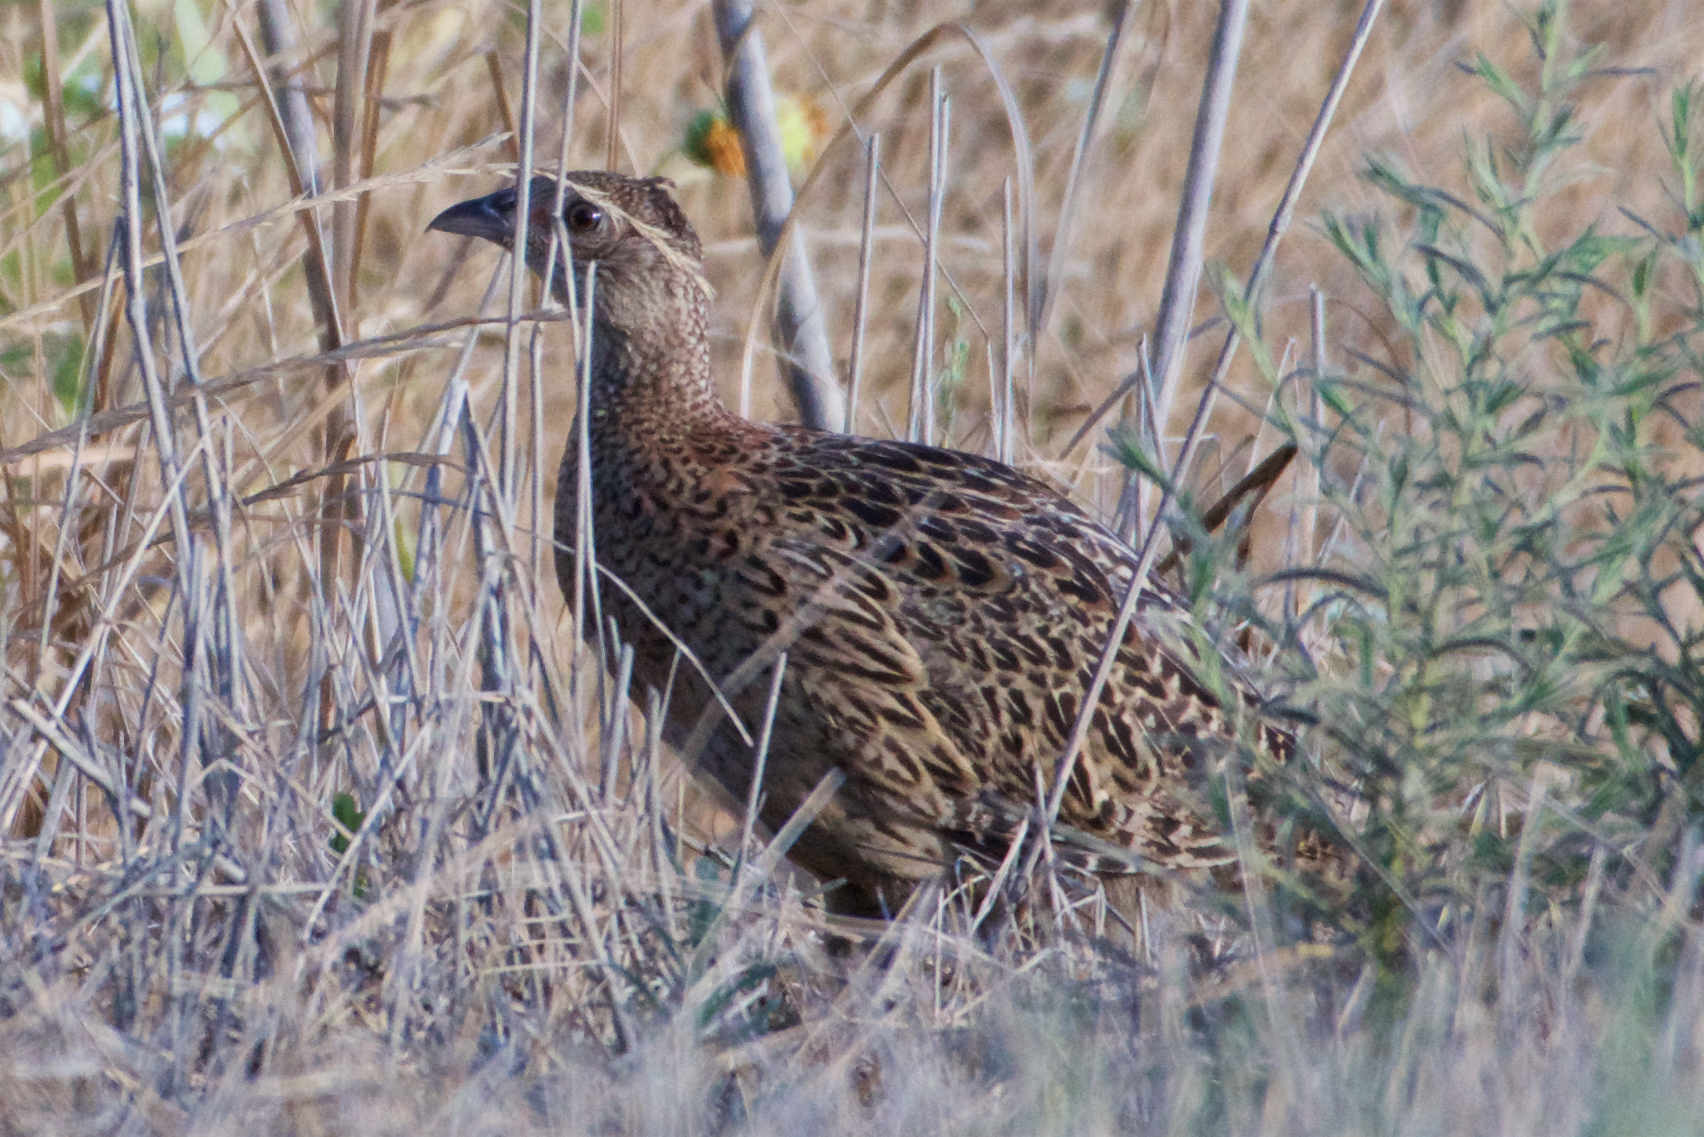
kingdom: Animalia
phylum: Chordata
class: Aves
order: Galliformes
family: Phasianidae
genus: Phasianus
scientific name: Phasianus colchicus
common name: Common pheasant
